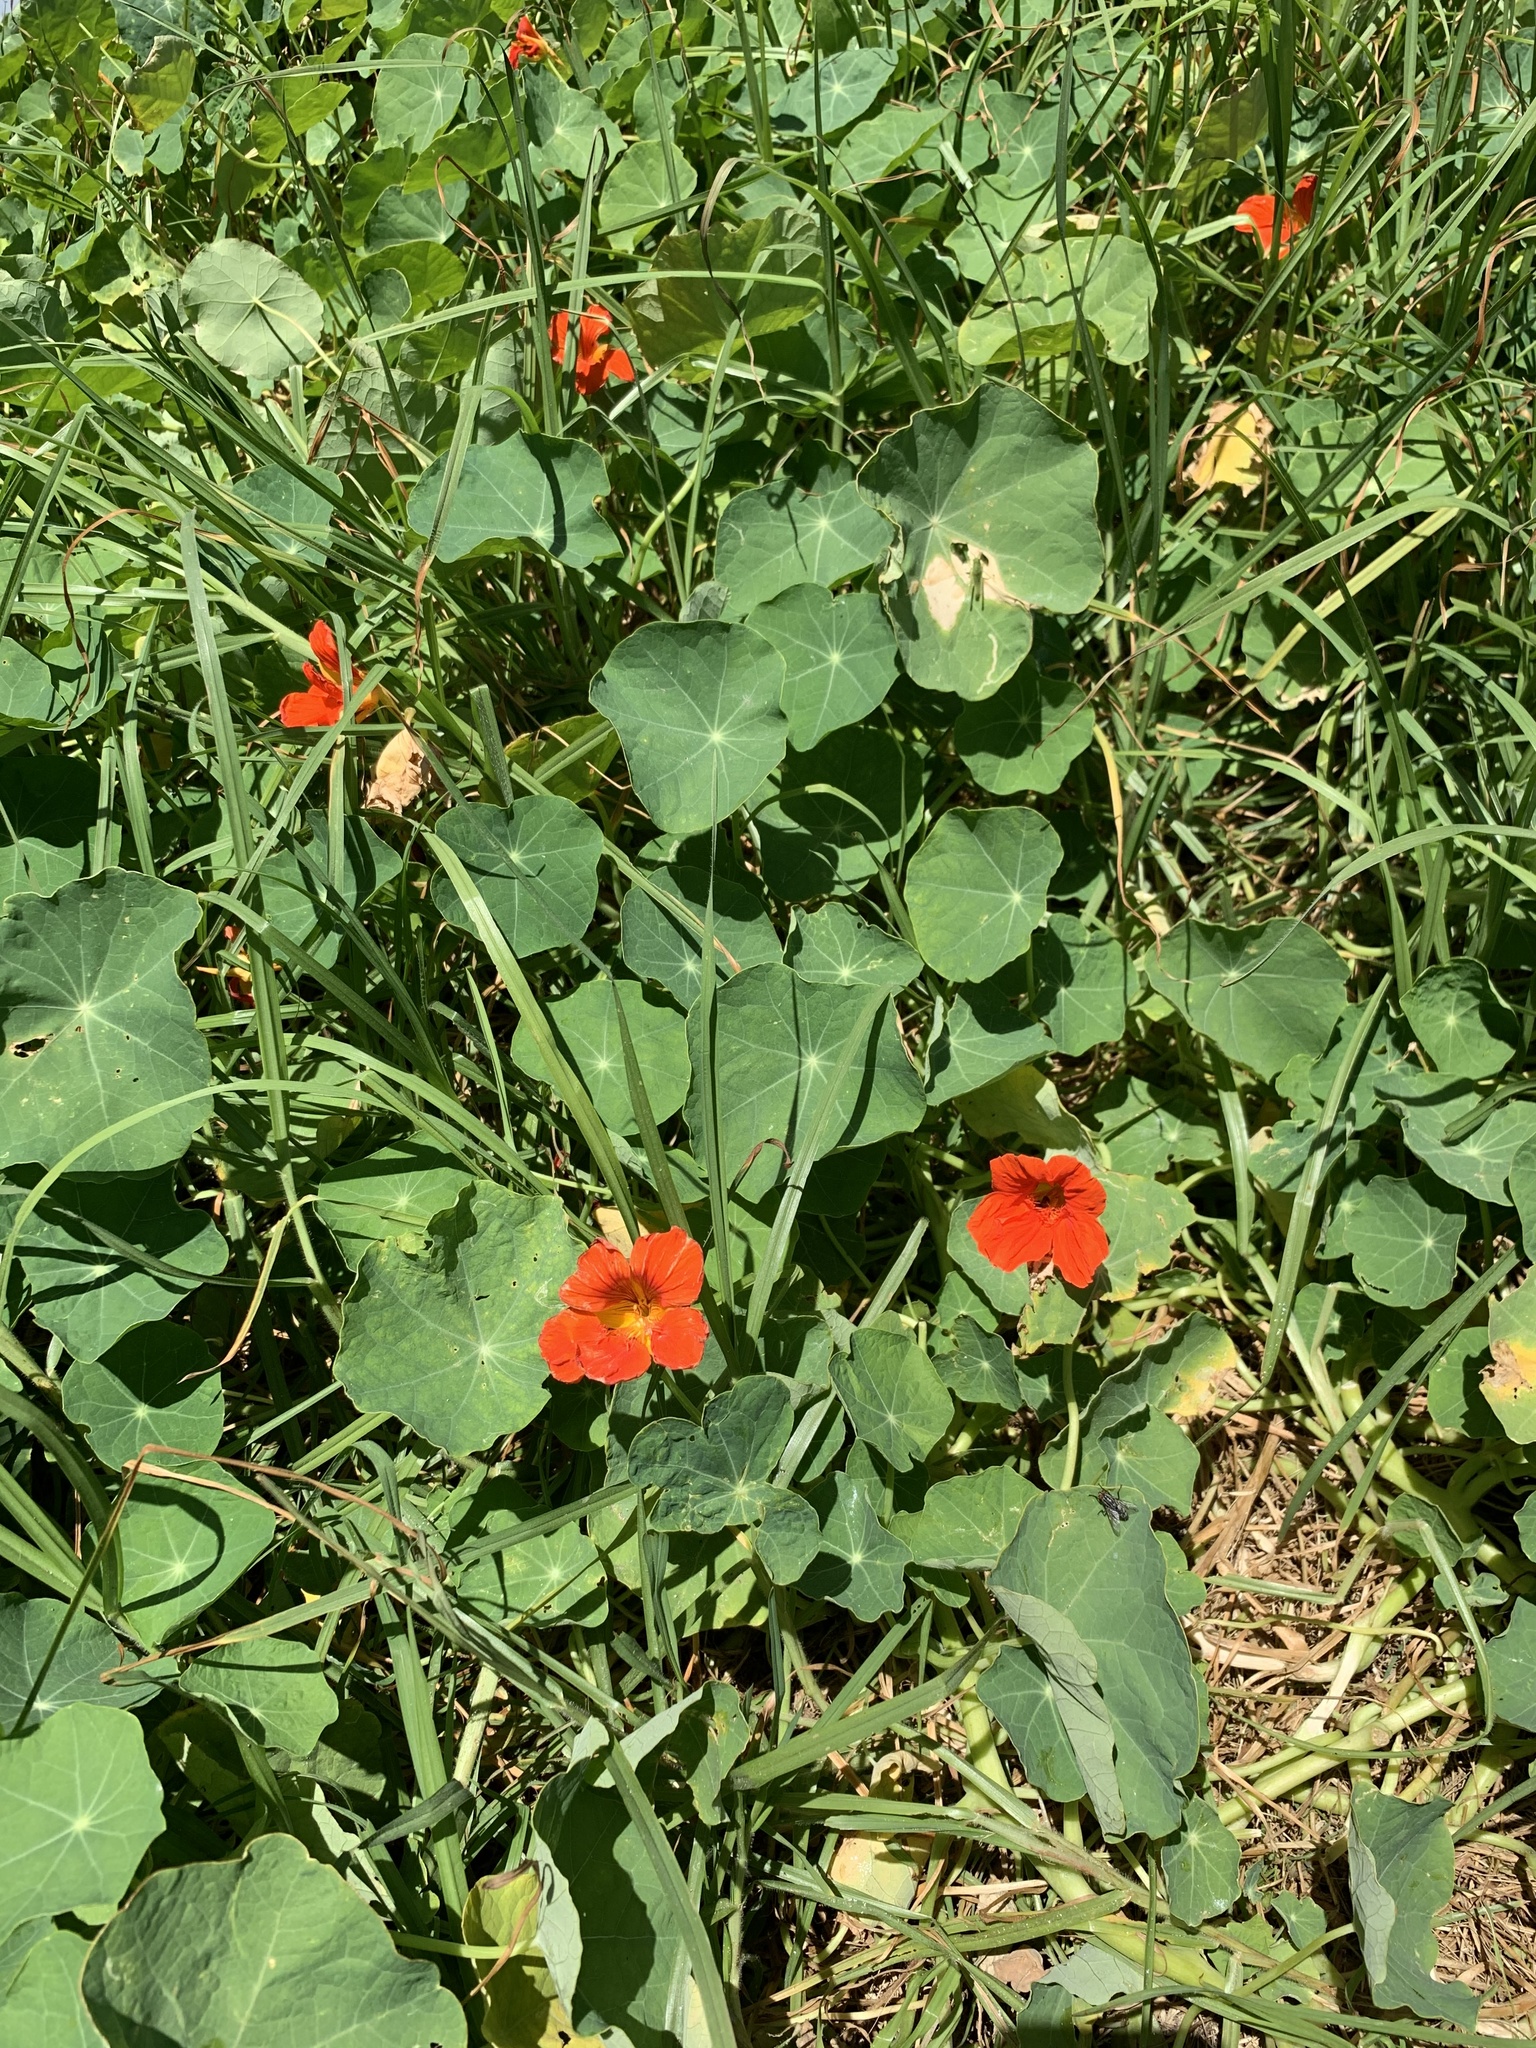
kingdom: Plantae
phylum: Tracheophyta
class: Magnoliopsida
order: Brassicales
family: Tropaeolaceae
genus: Tropaeolum
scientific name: Tropaeolum majus
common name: Nasturtium
